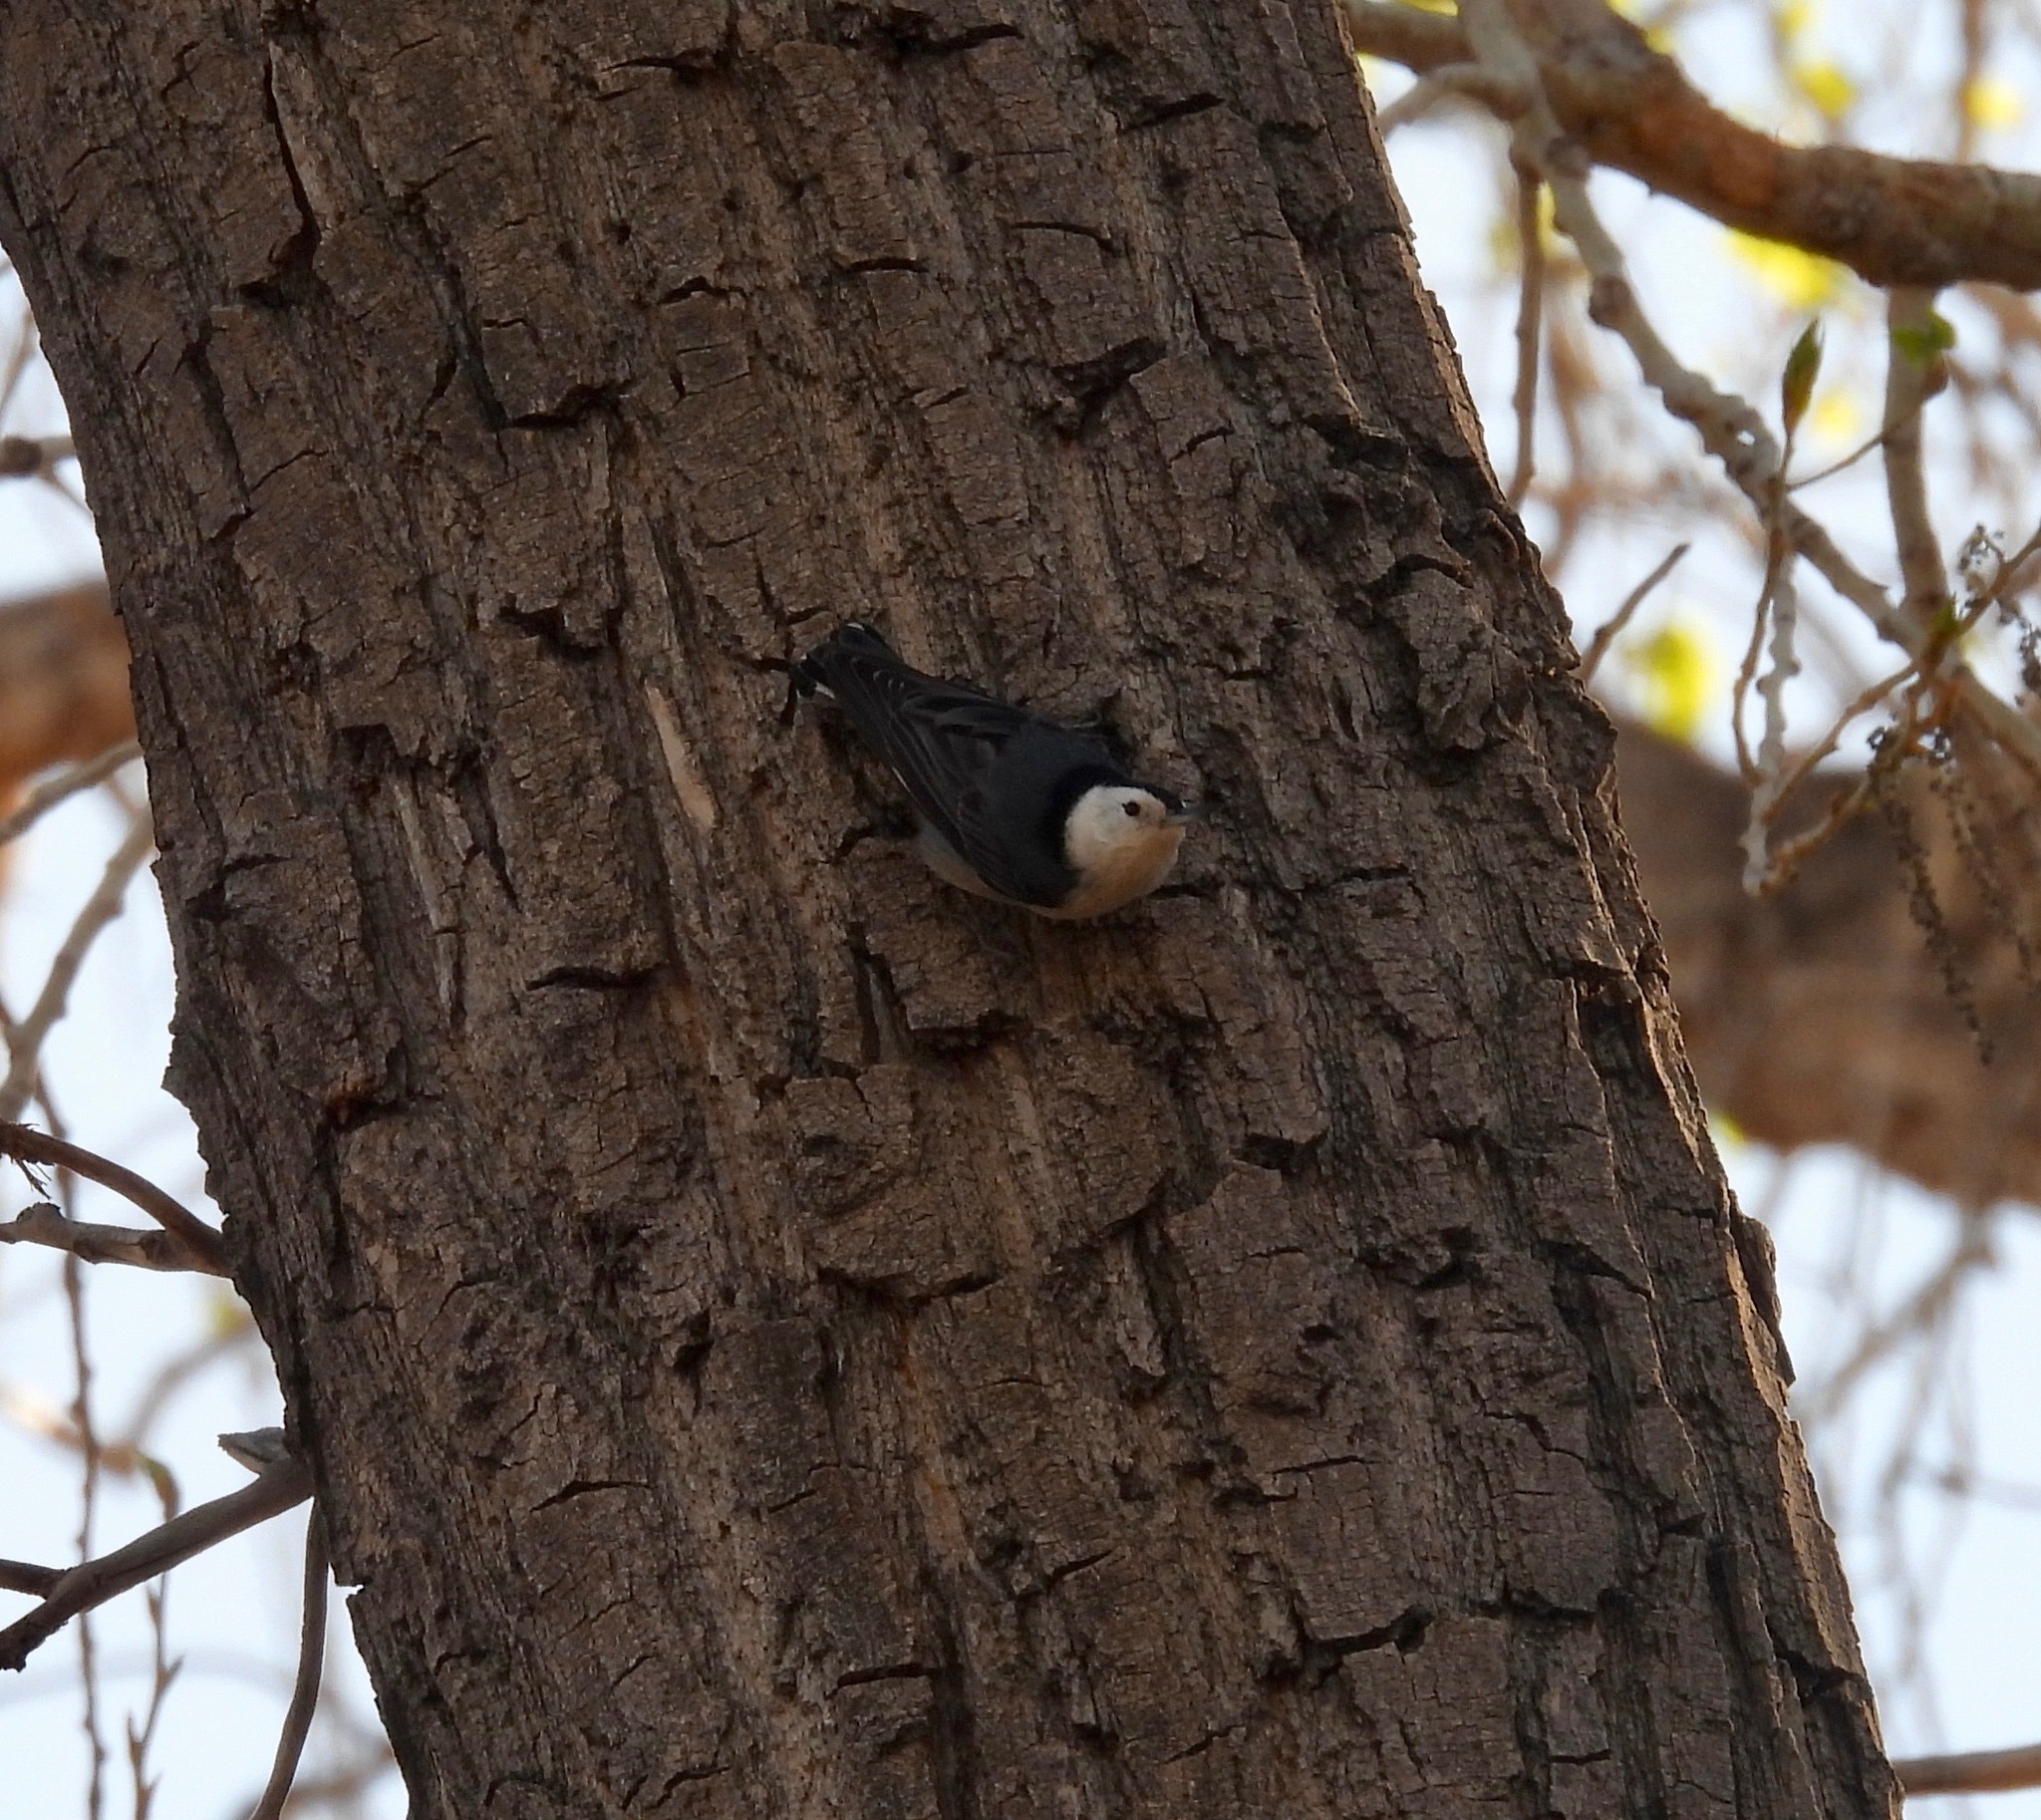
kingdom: Animalia
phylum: Chordata
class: Aves
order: Passeriformes
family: Sittidae
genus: Sitta
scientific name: Sitta carolinensis
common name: White-breasted nuthatch
